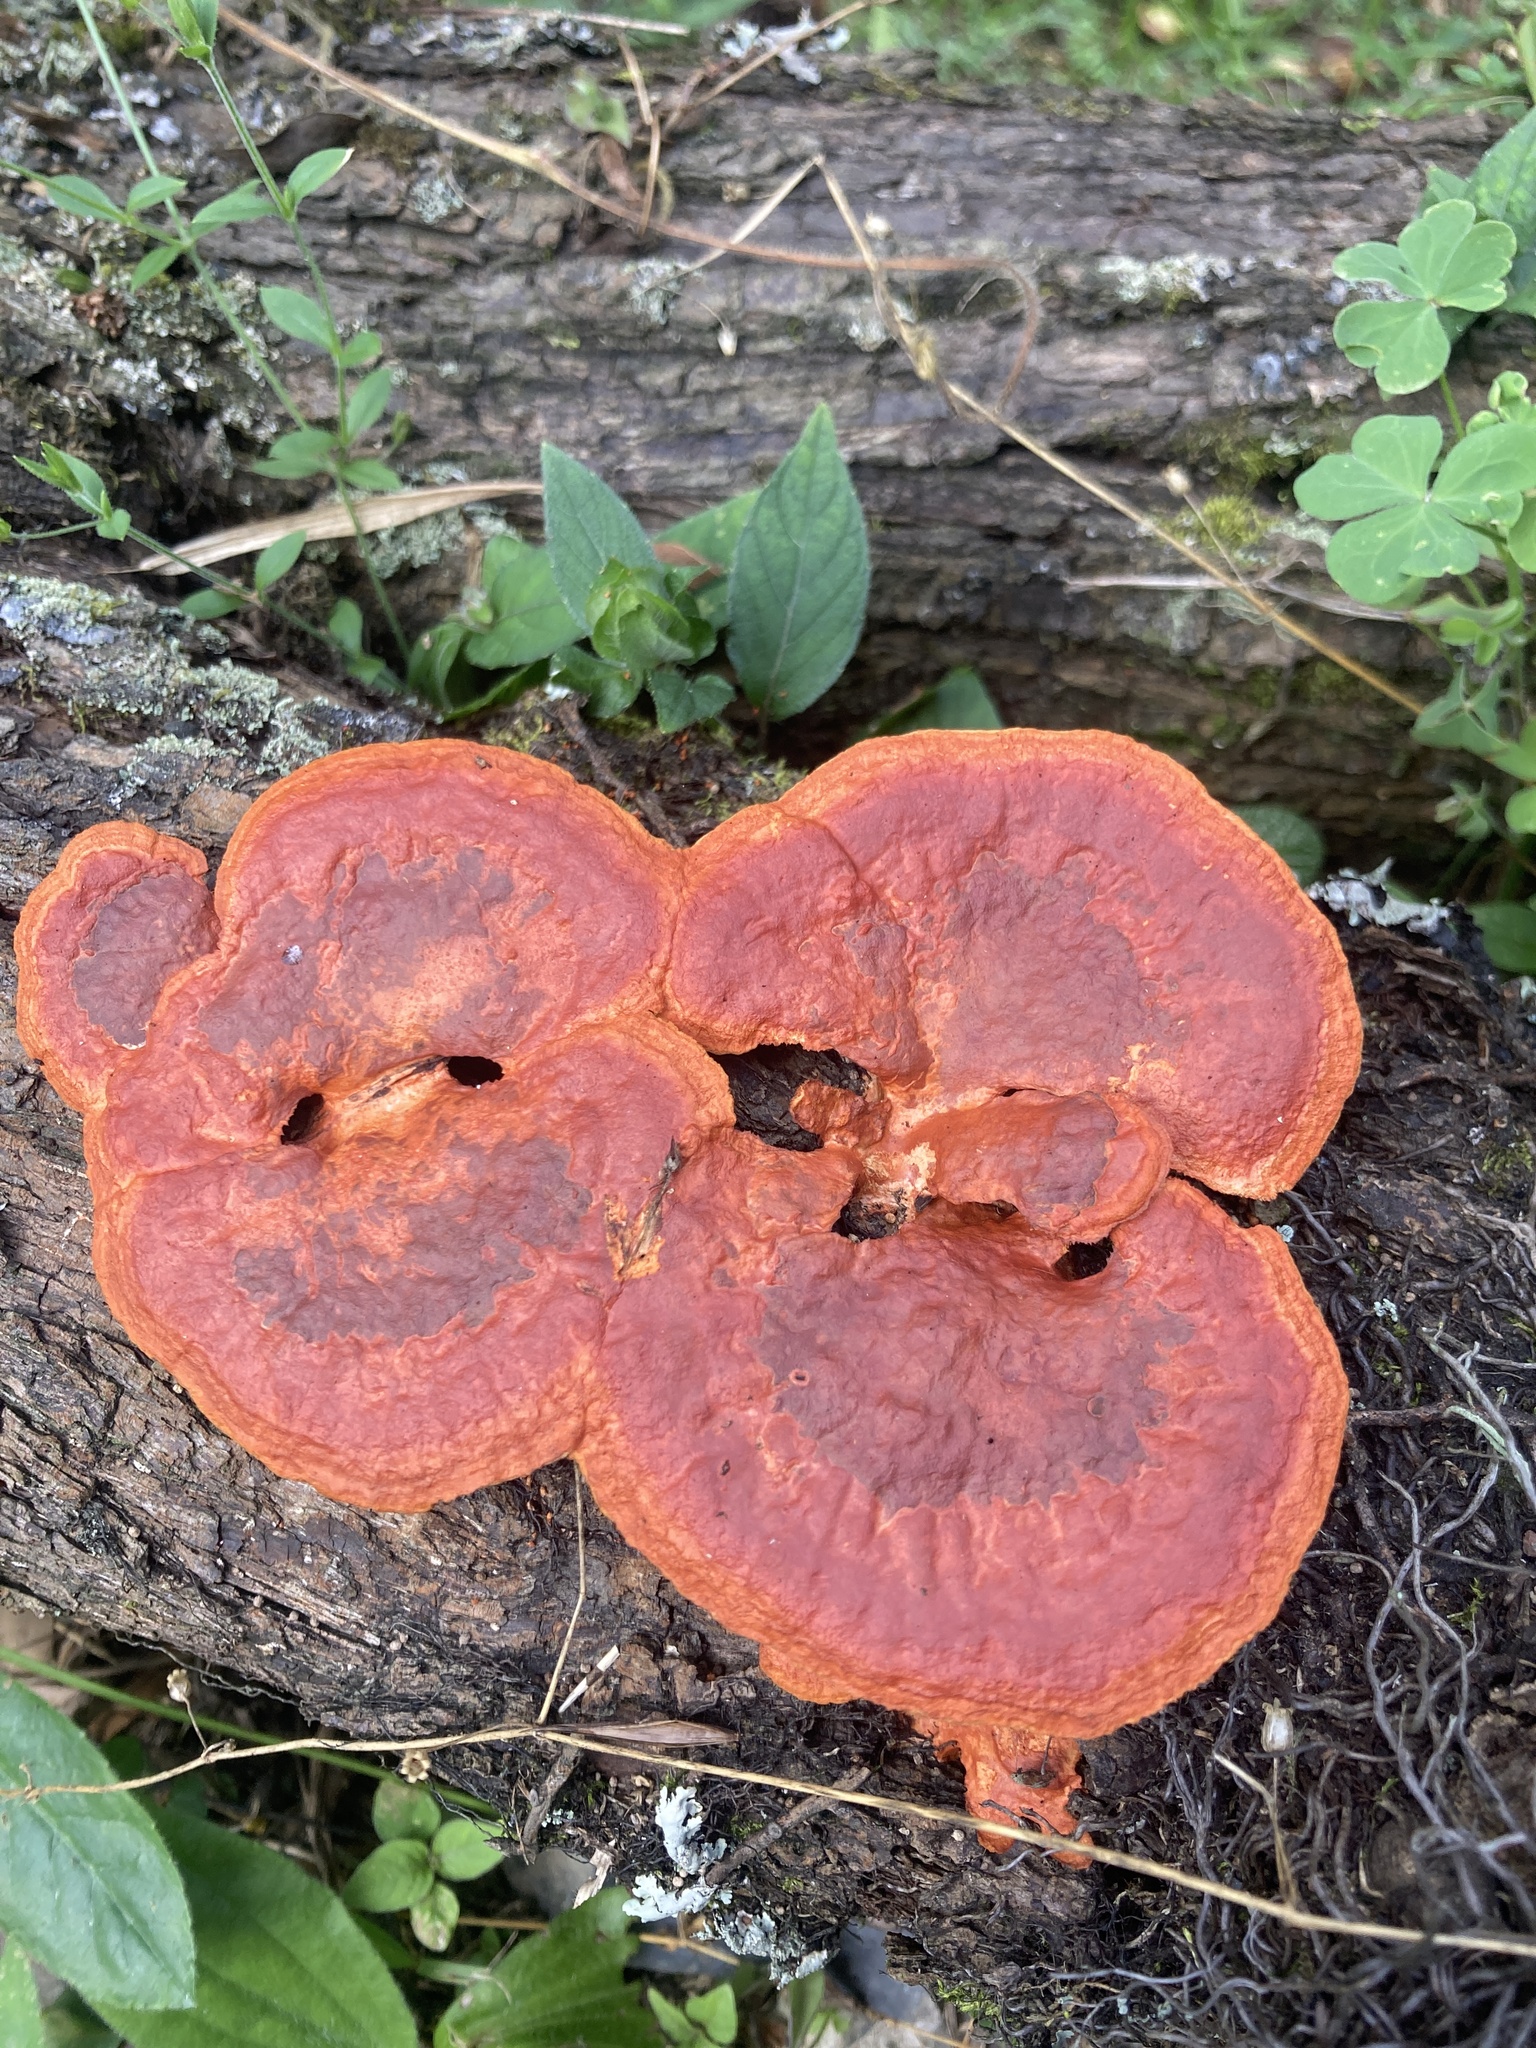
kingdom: Fungi
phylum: Basidiomycota
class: Agaricomycetes
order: Polyporales
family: Polyporaceae
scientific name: Polyporaceae
